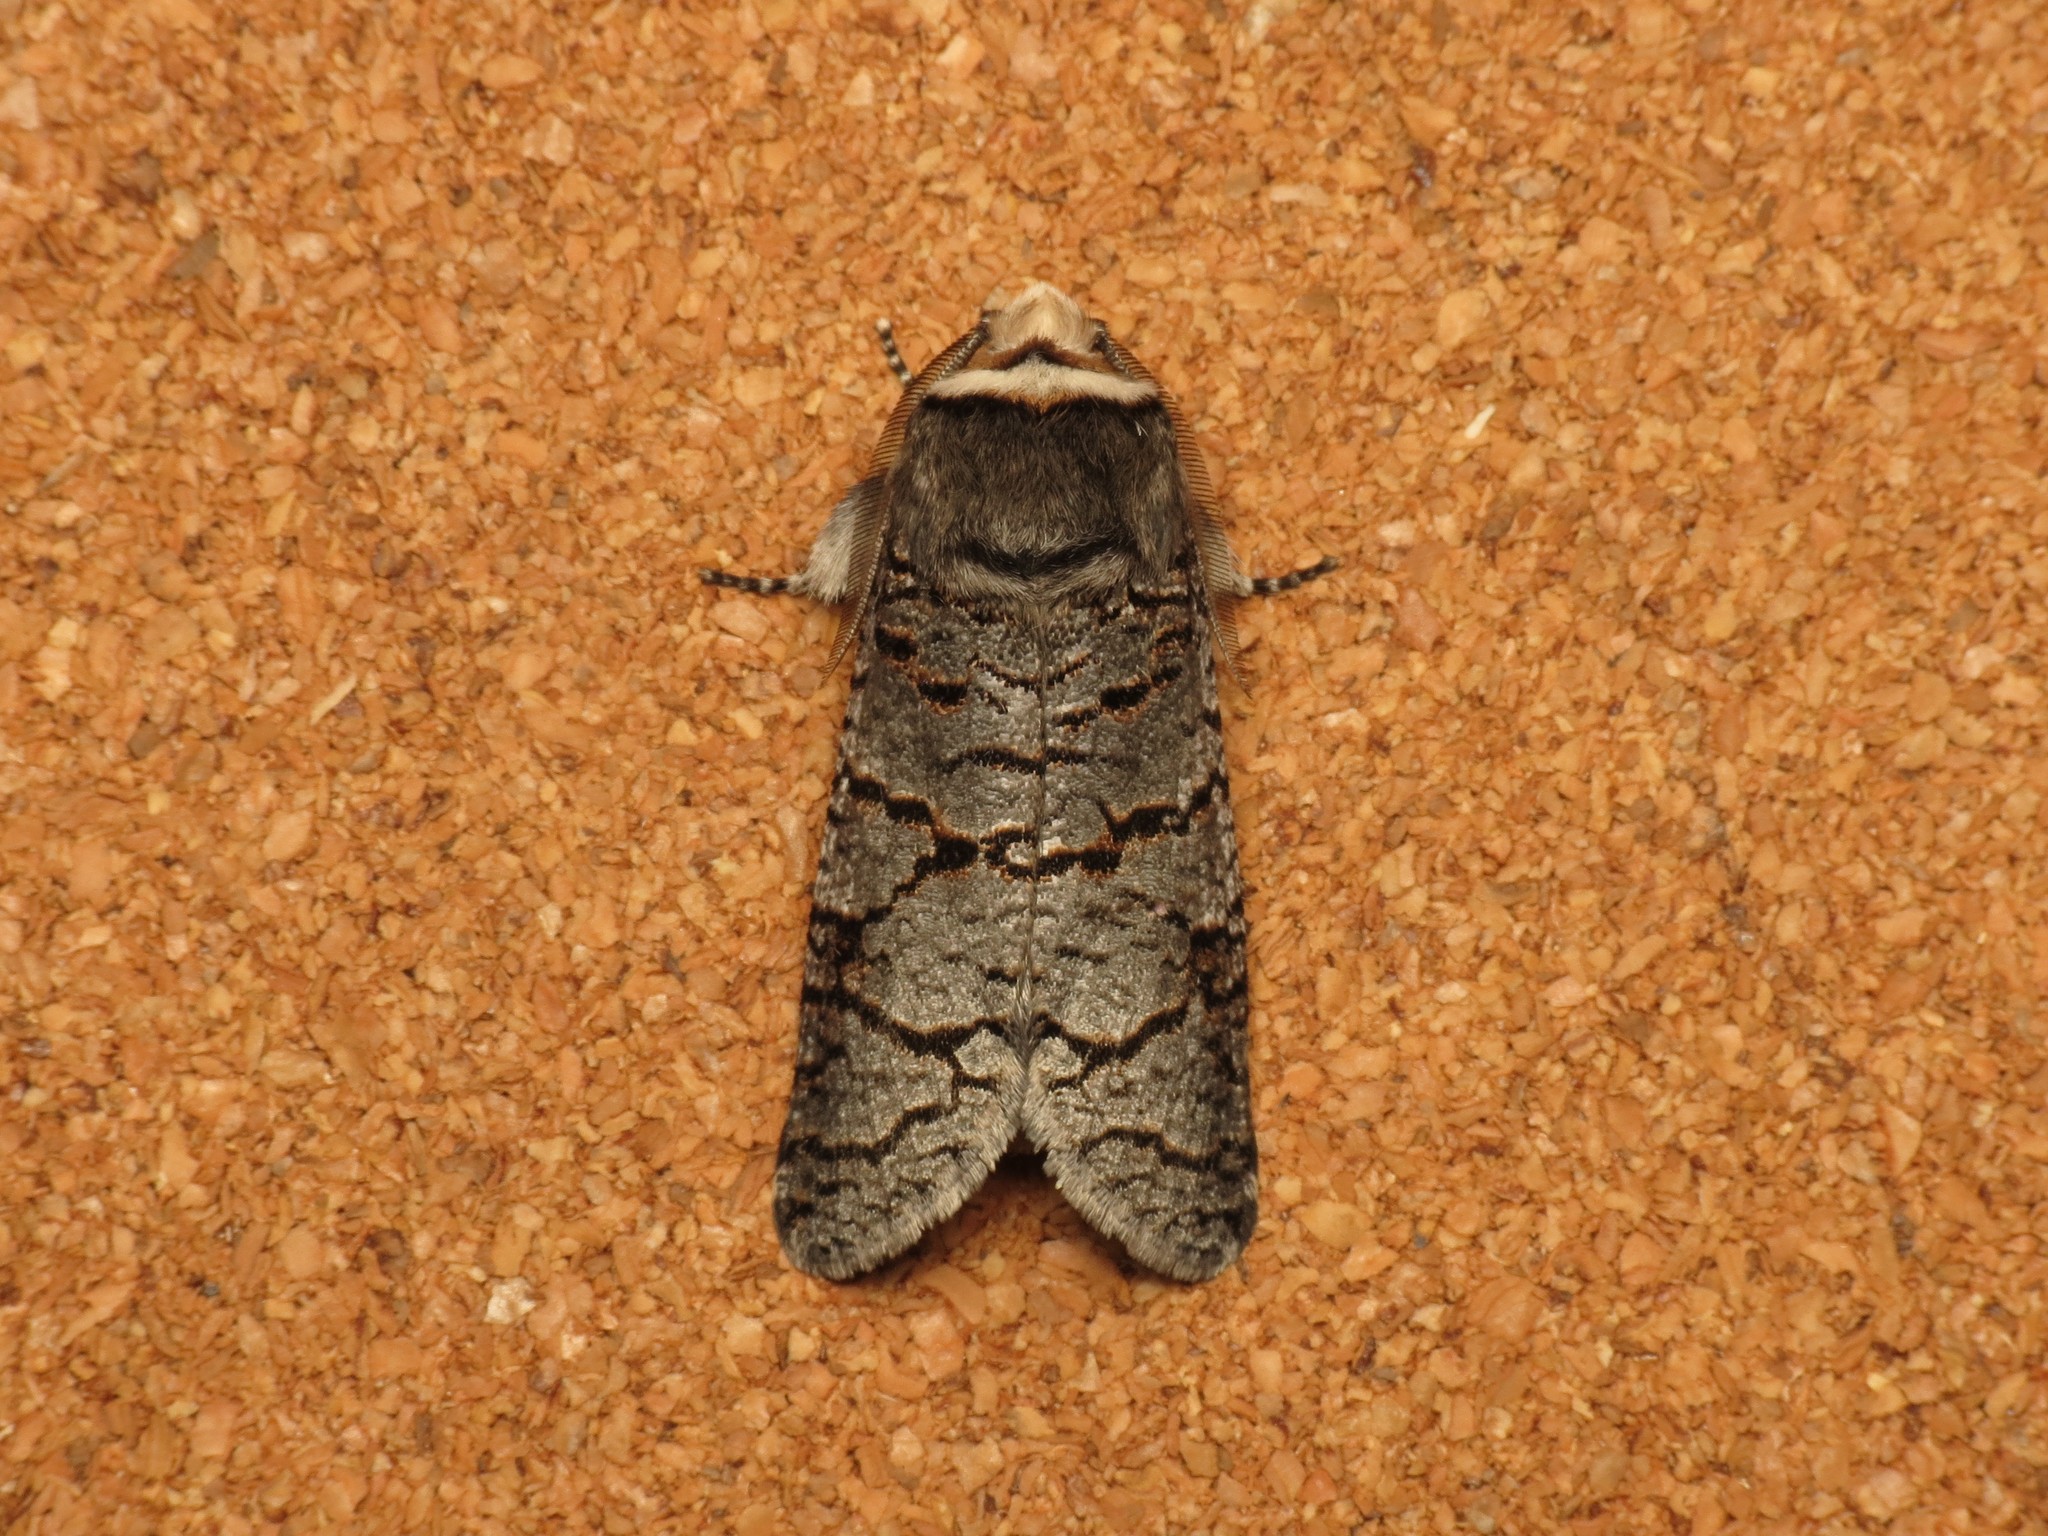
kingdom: Animalia
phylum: Arthropoda
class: Insecta
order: Lepidoptera
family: Cossidae
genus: Zyganisus
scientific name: Zyganisus fulvicollis
